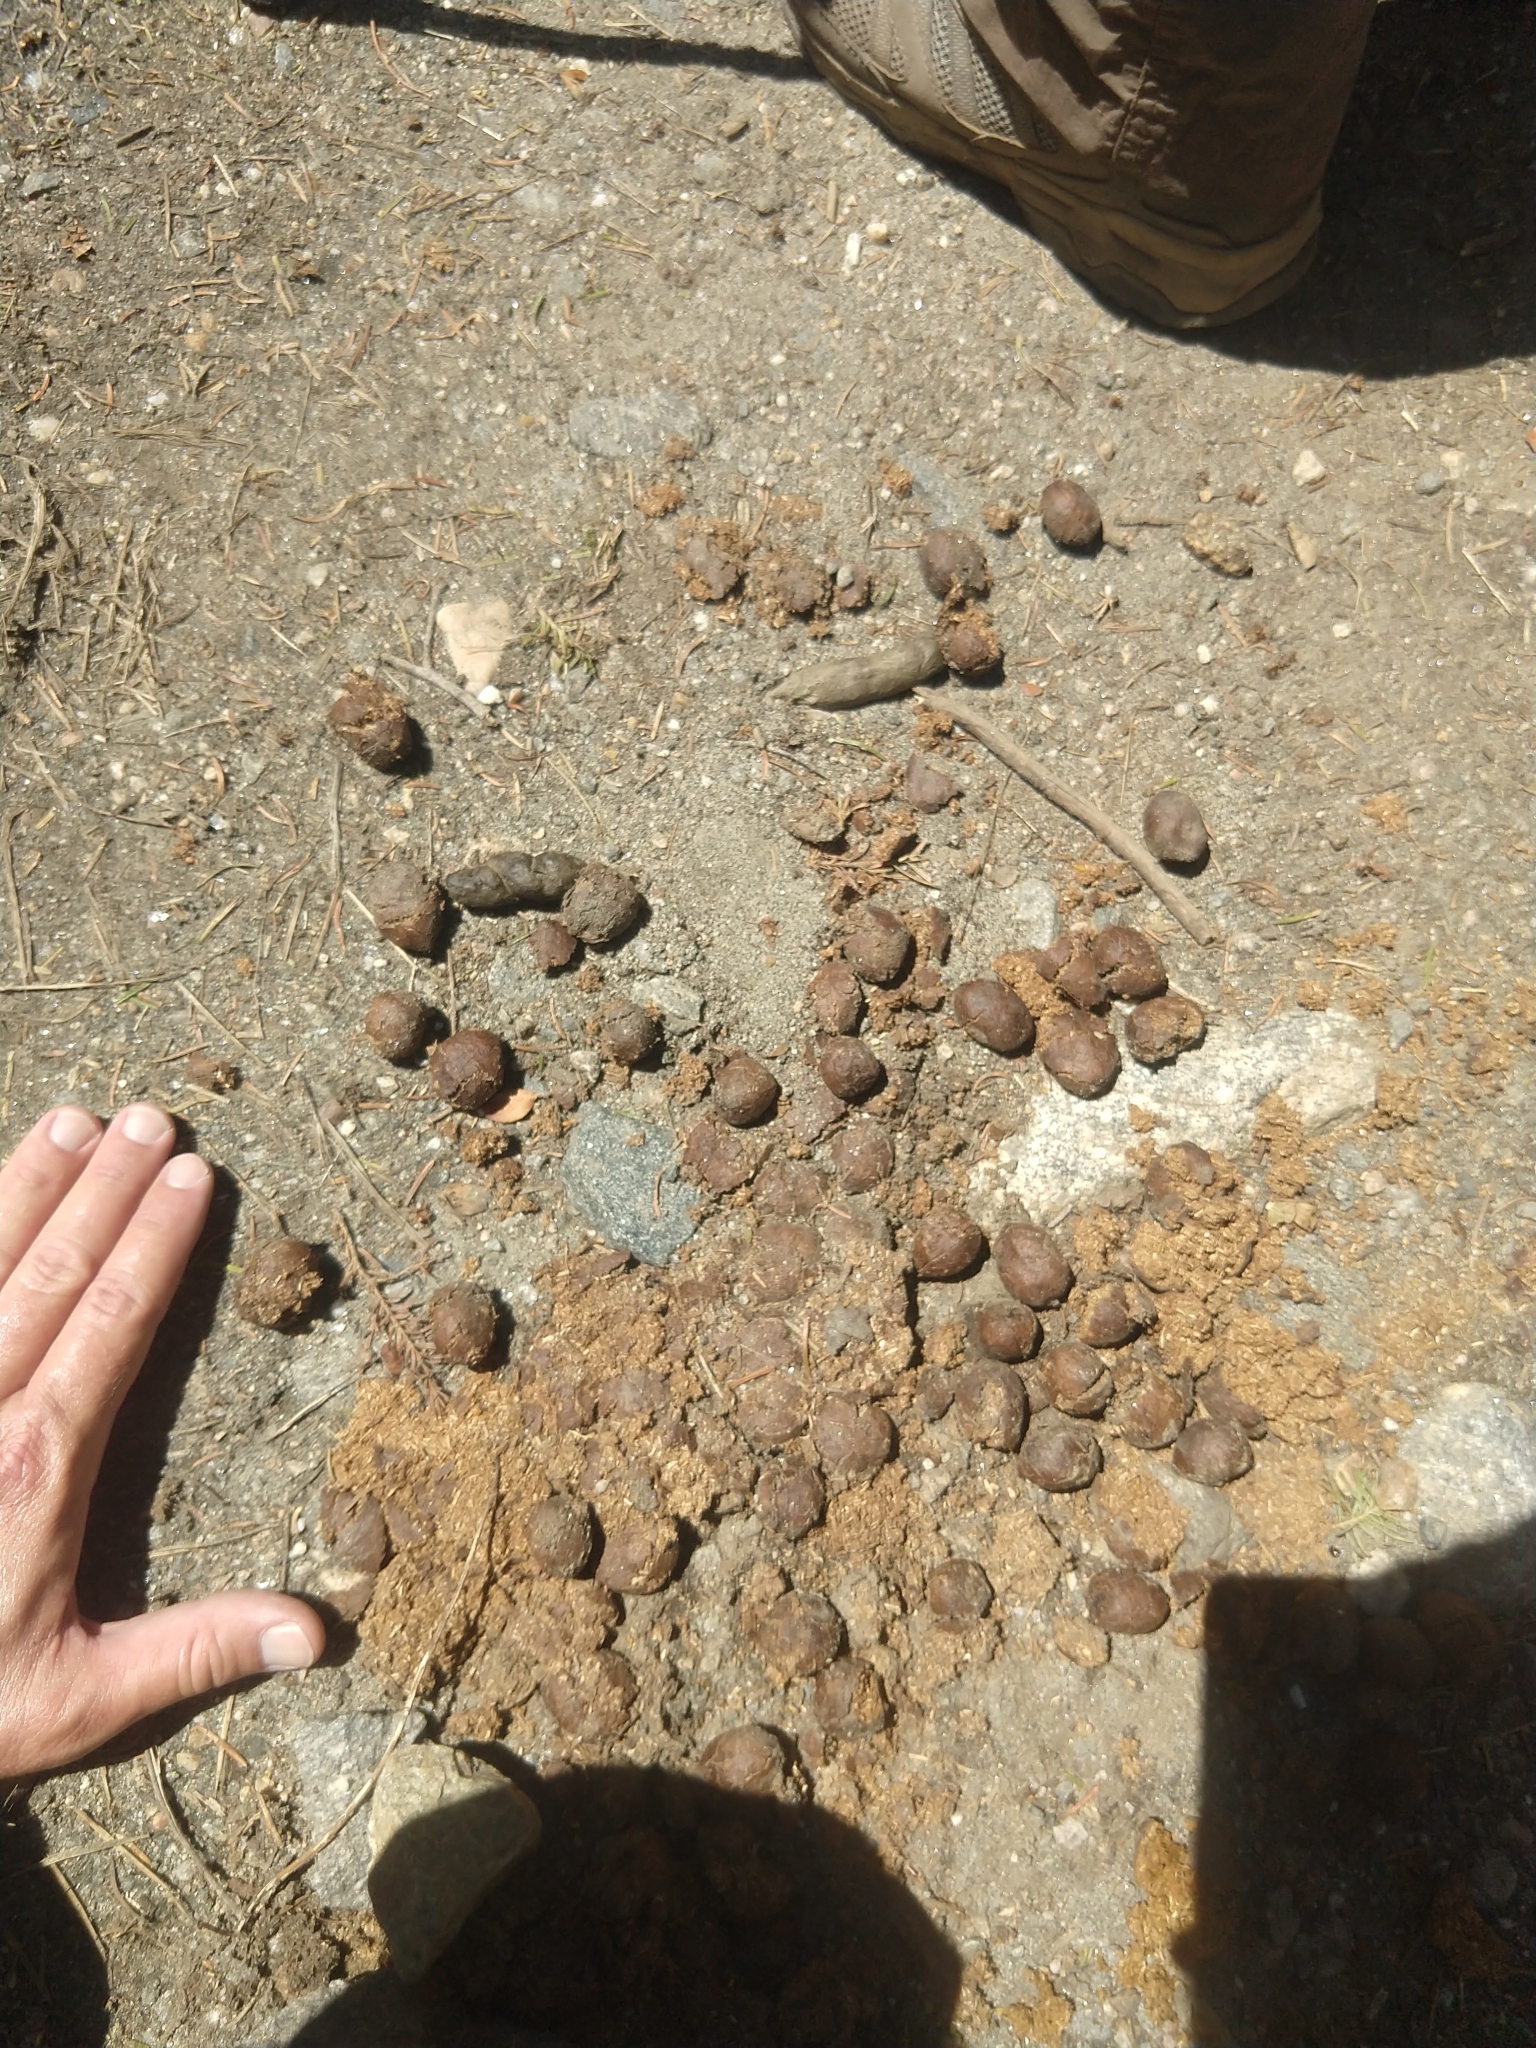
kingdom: Animalia
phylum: Chordata
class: Mammalia
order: Artiodactyla
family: Cervidae
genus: Alces
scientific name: Alces alces
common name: Moose
